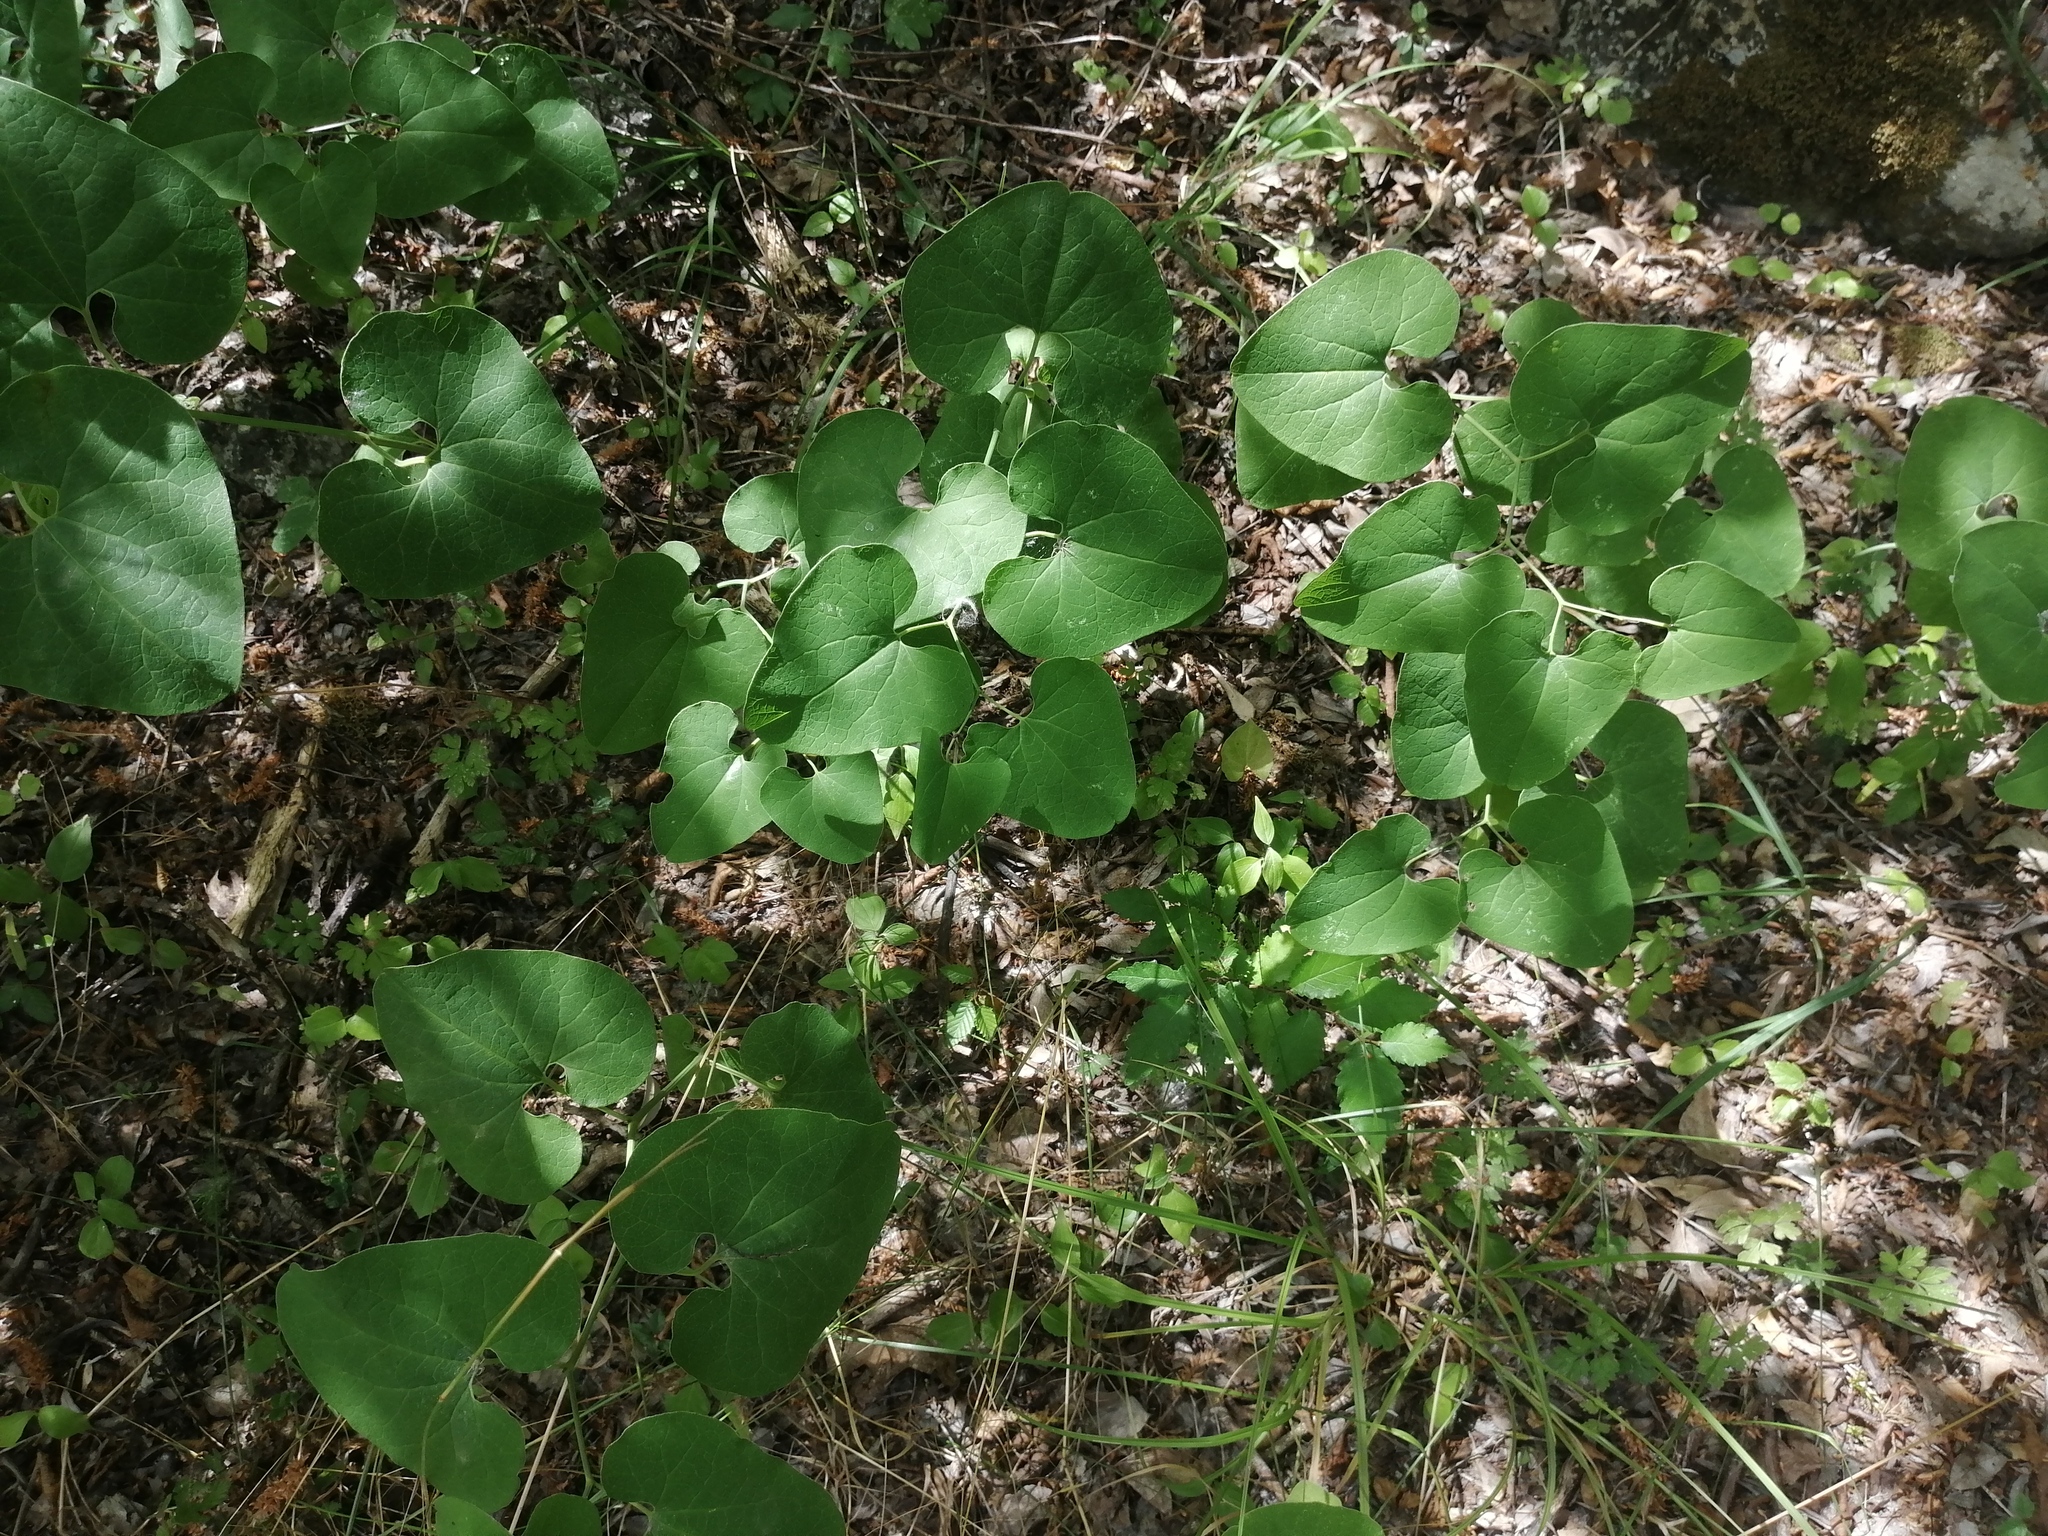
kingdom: Plantae
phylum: Tracheophyta
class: Magnoliopsida
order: Piperales
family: Aristolochiaceae
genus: Aristolochia
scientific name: Aristolochia clematitis
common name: Birthwort
